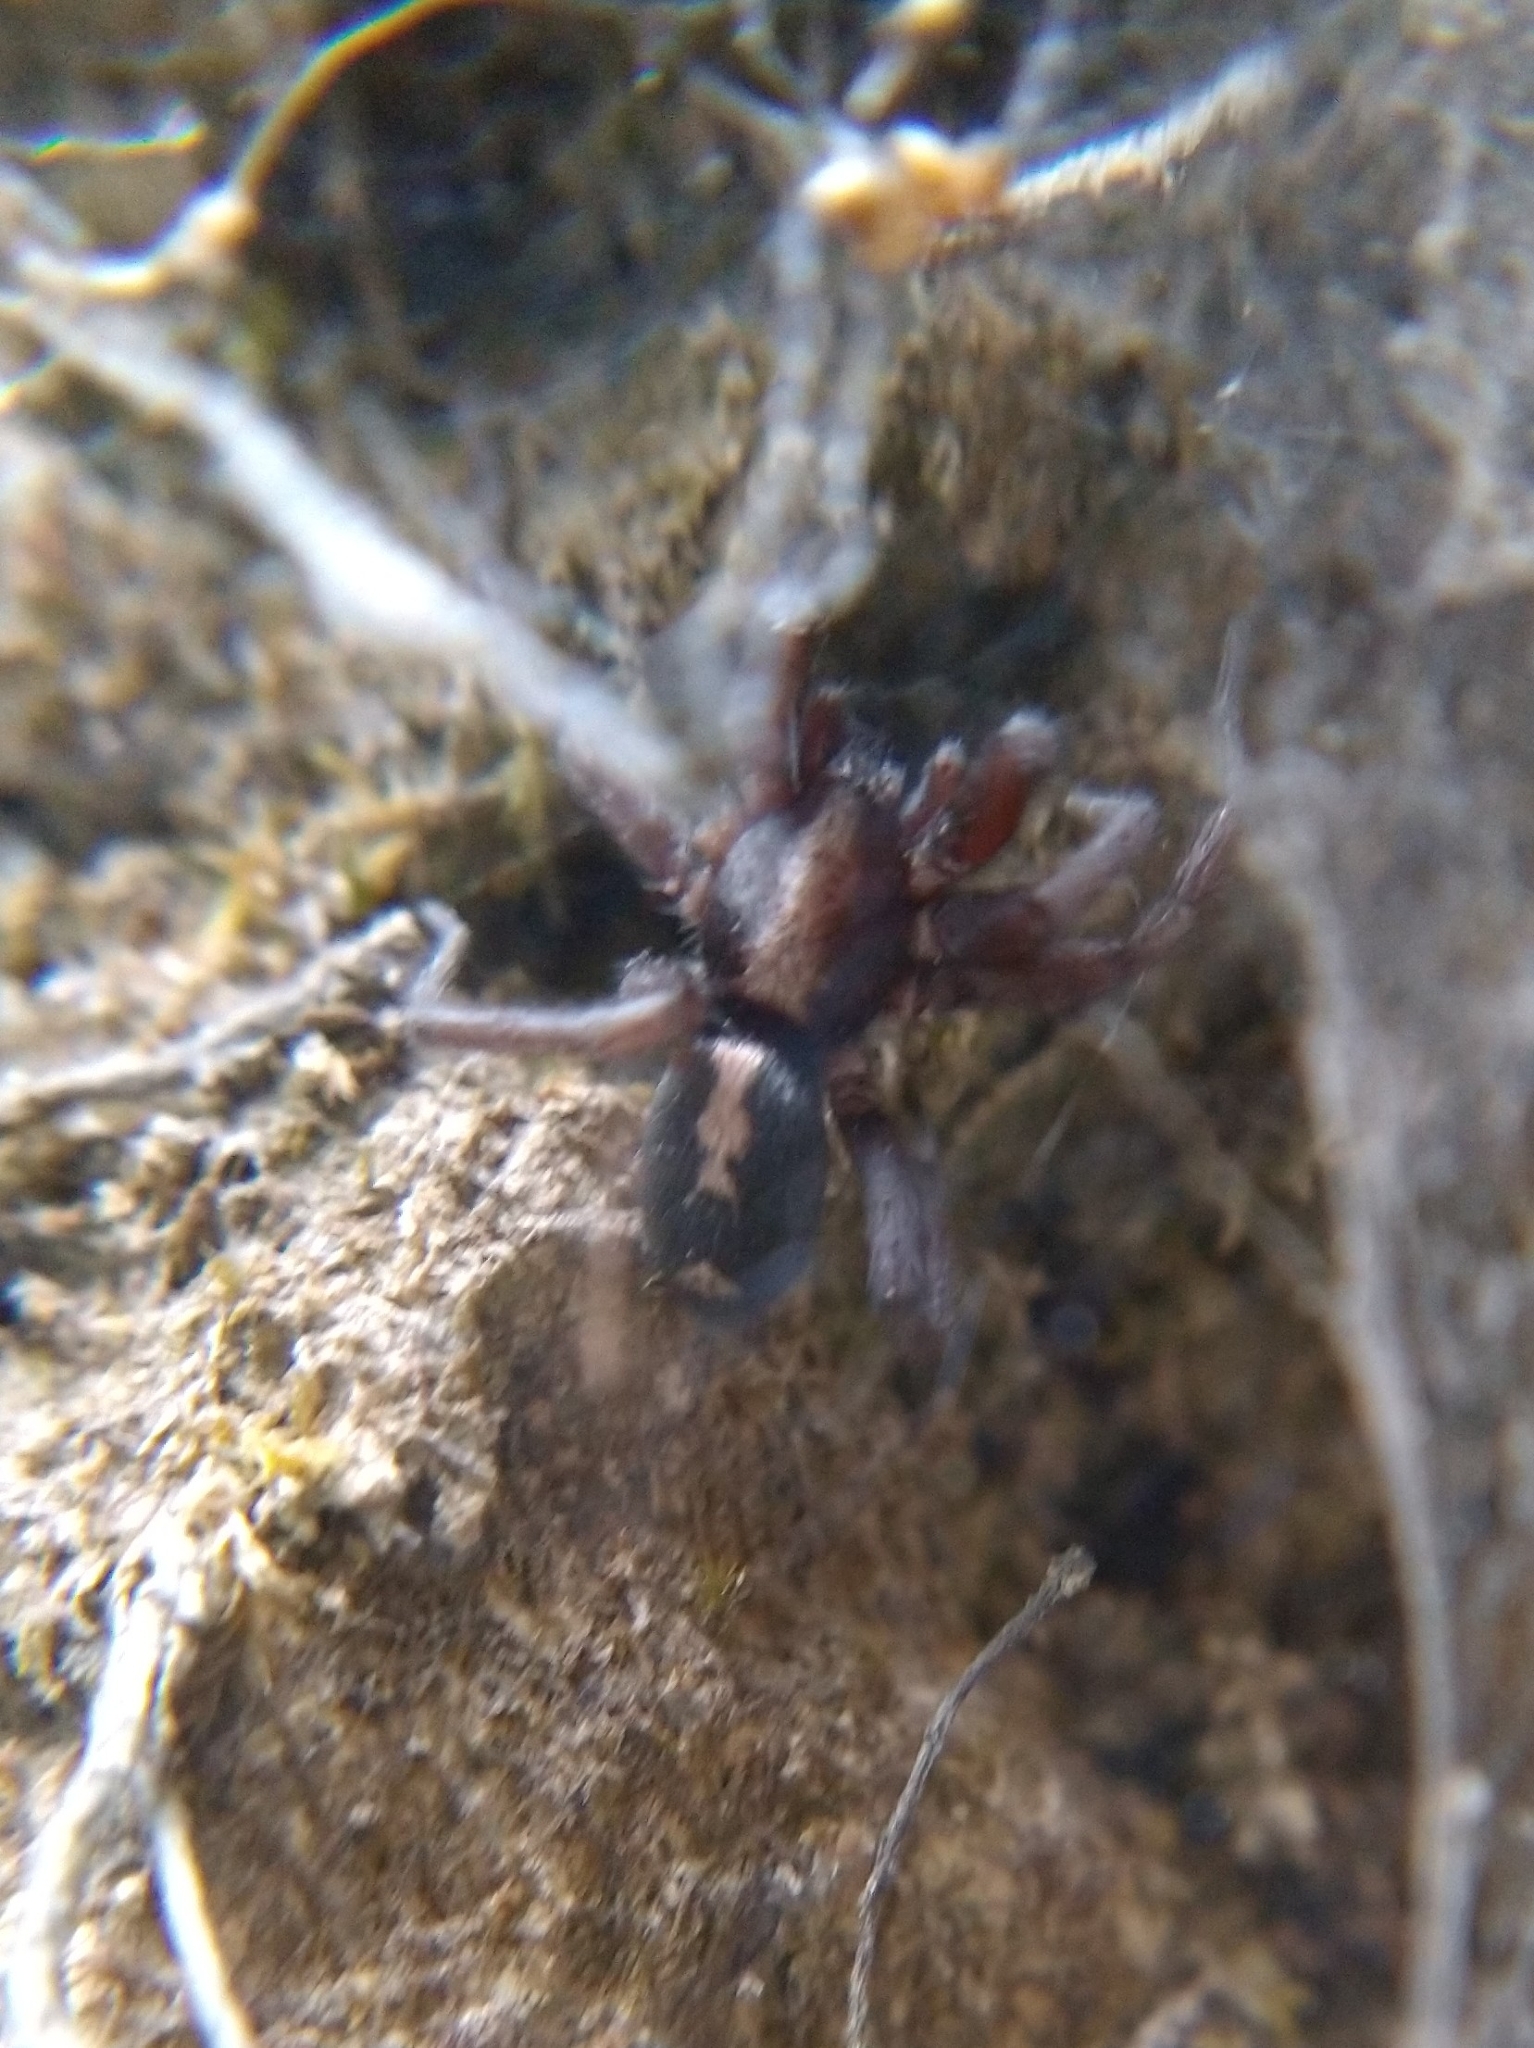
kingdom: Animalia
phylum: Arthropoda
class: Arachnida
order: Araneae
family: Gnaphosidae
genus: Herpyllus
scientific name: Herpyllus propinquus
